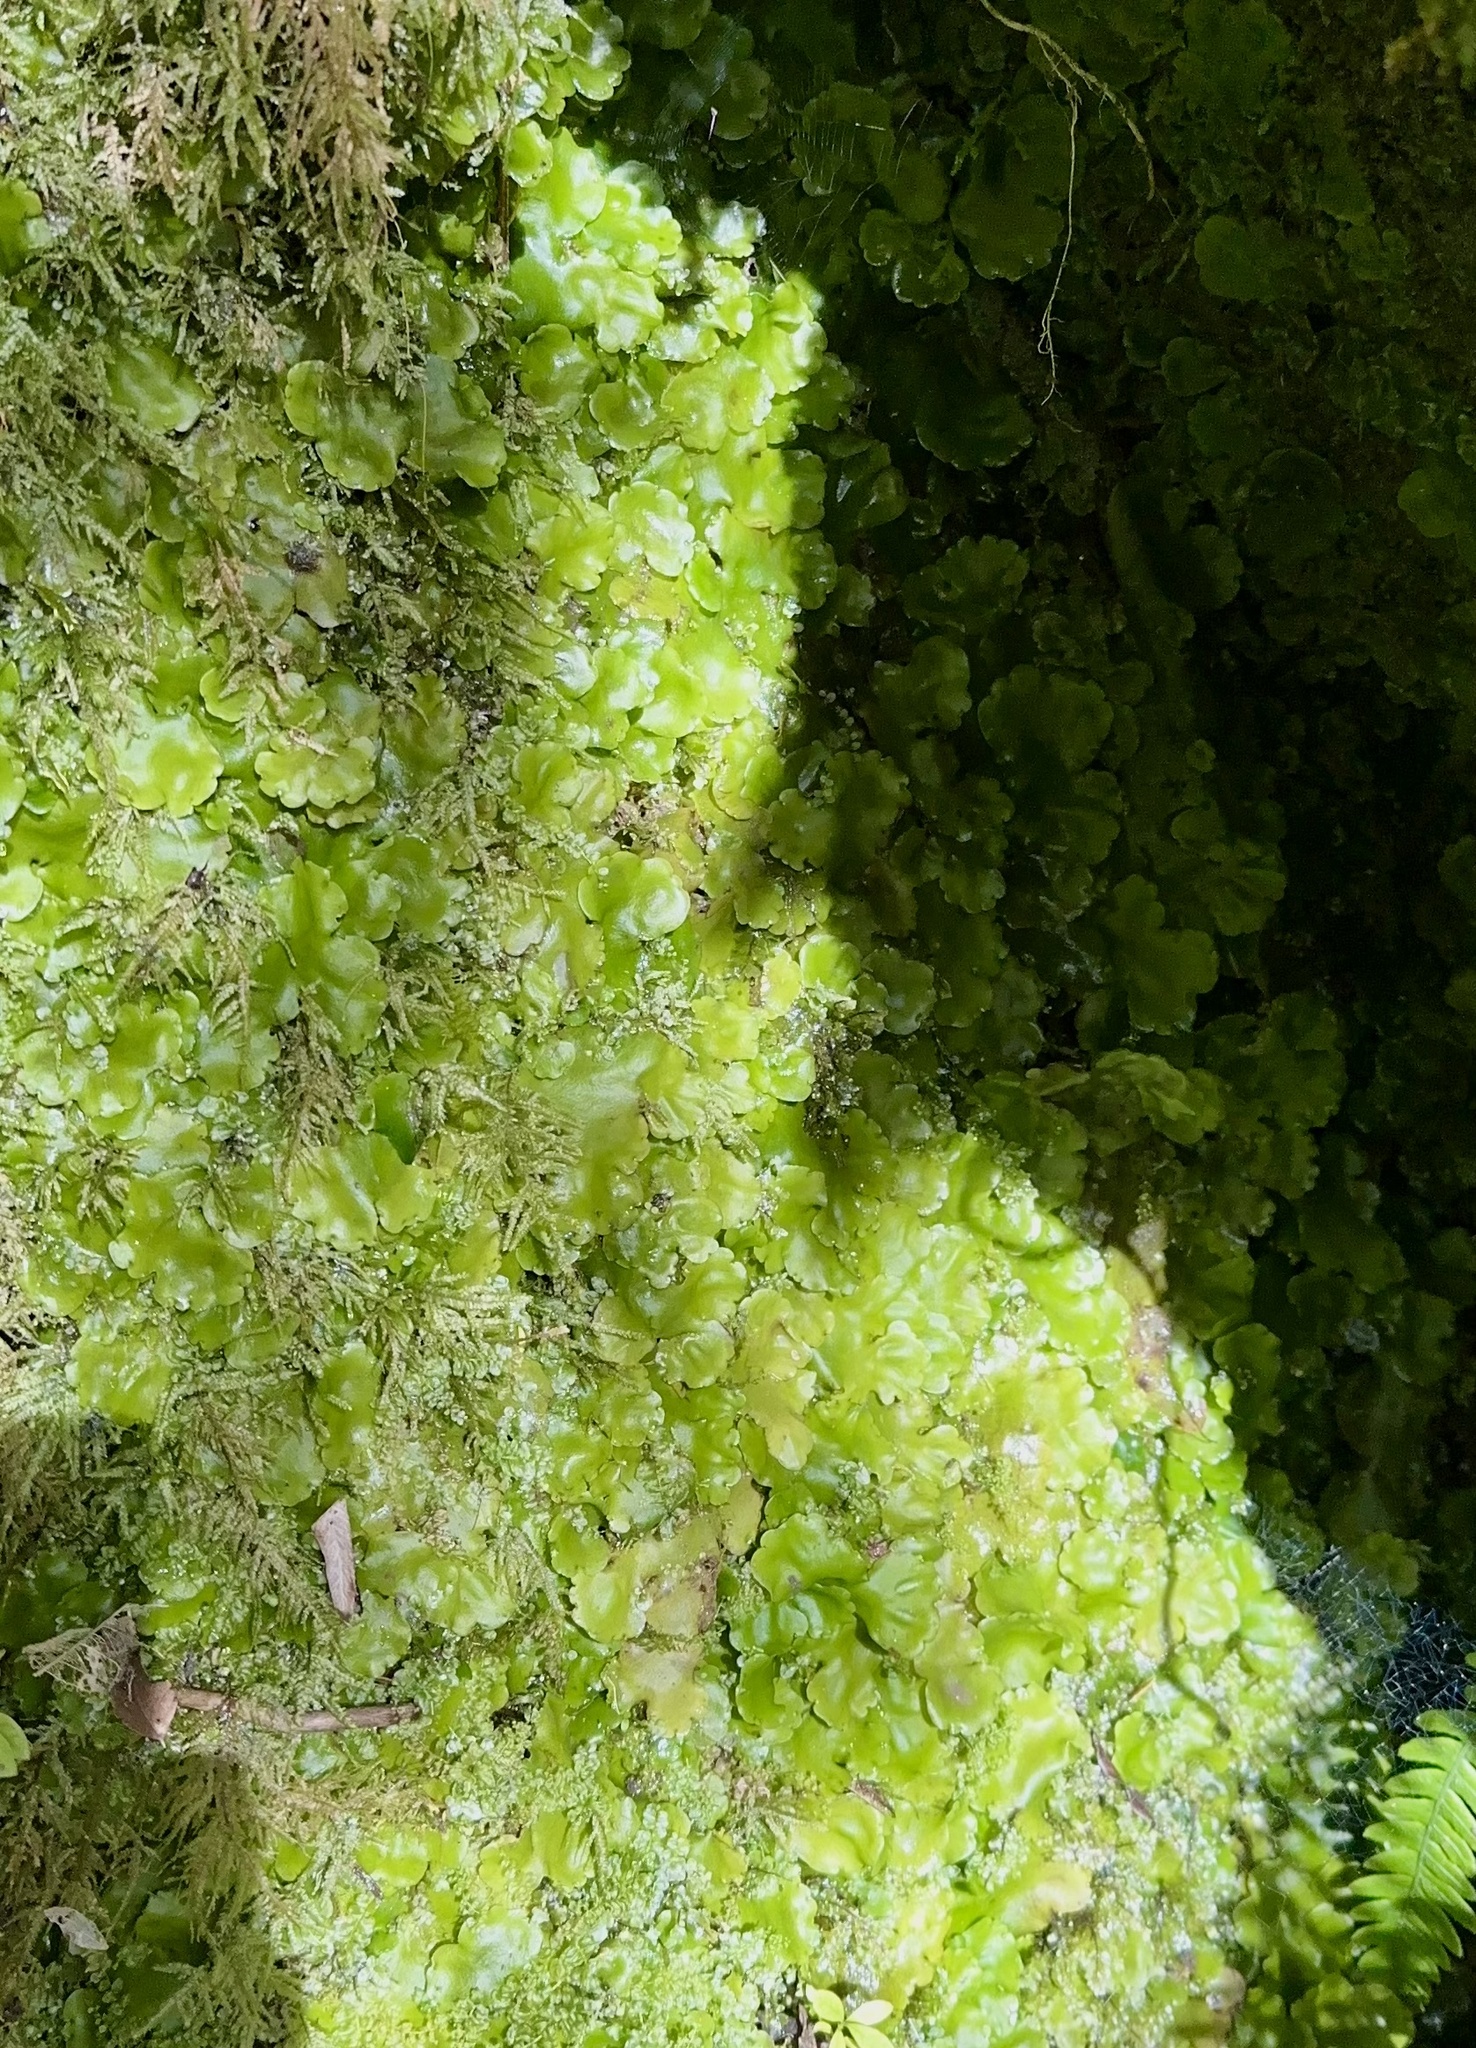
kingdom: Plantae
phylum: Marchantiophyta
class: Marchantiopsida
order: Marchantiales
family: Monocleaceae
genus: Monoclea
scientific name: Monoclea forsteri
